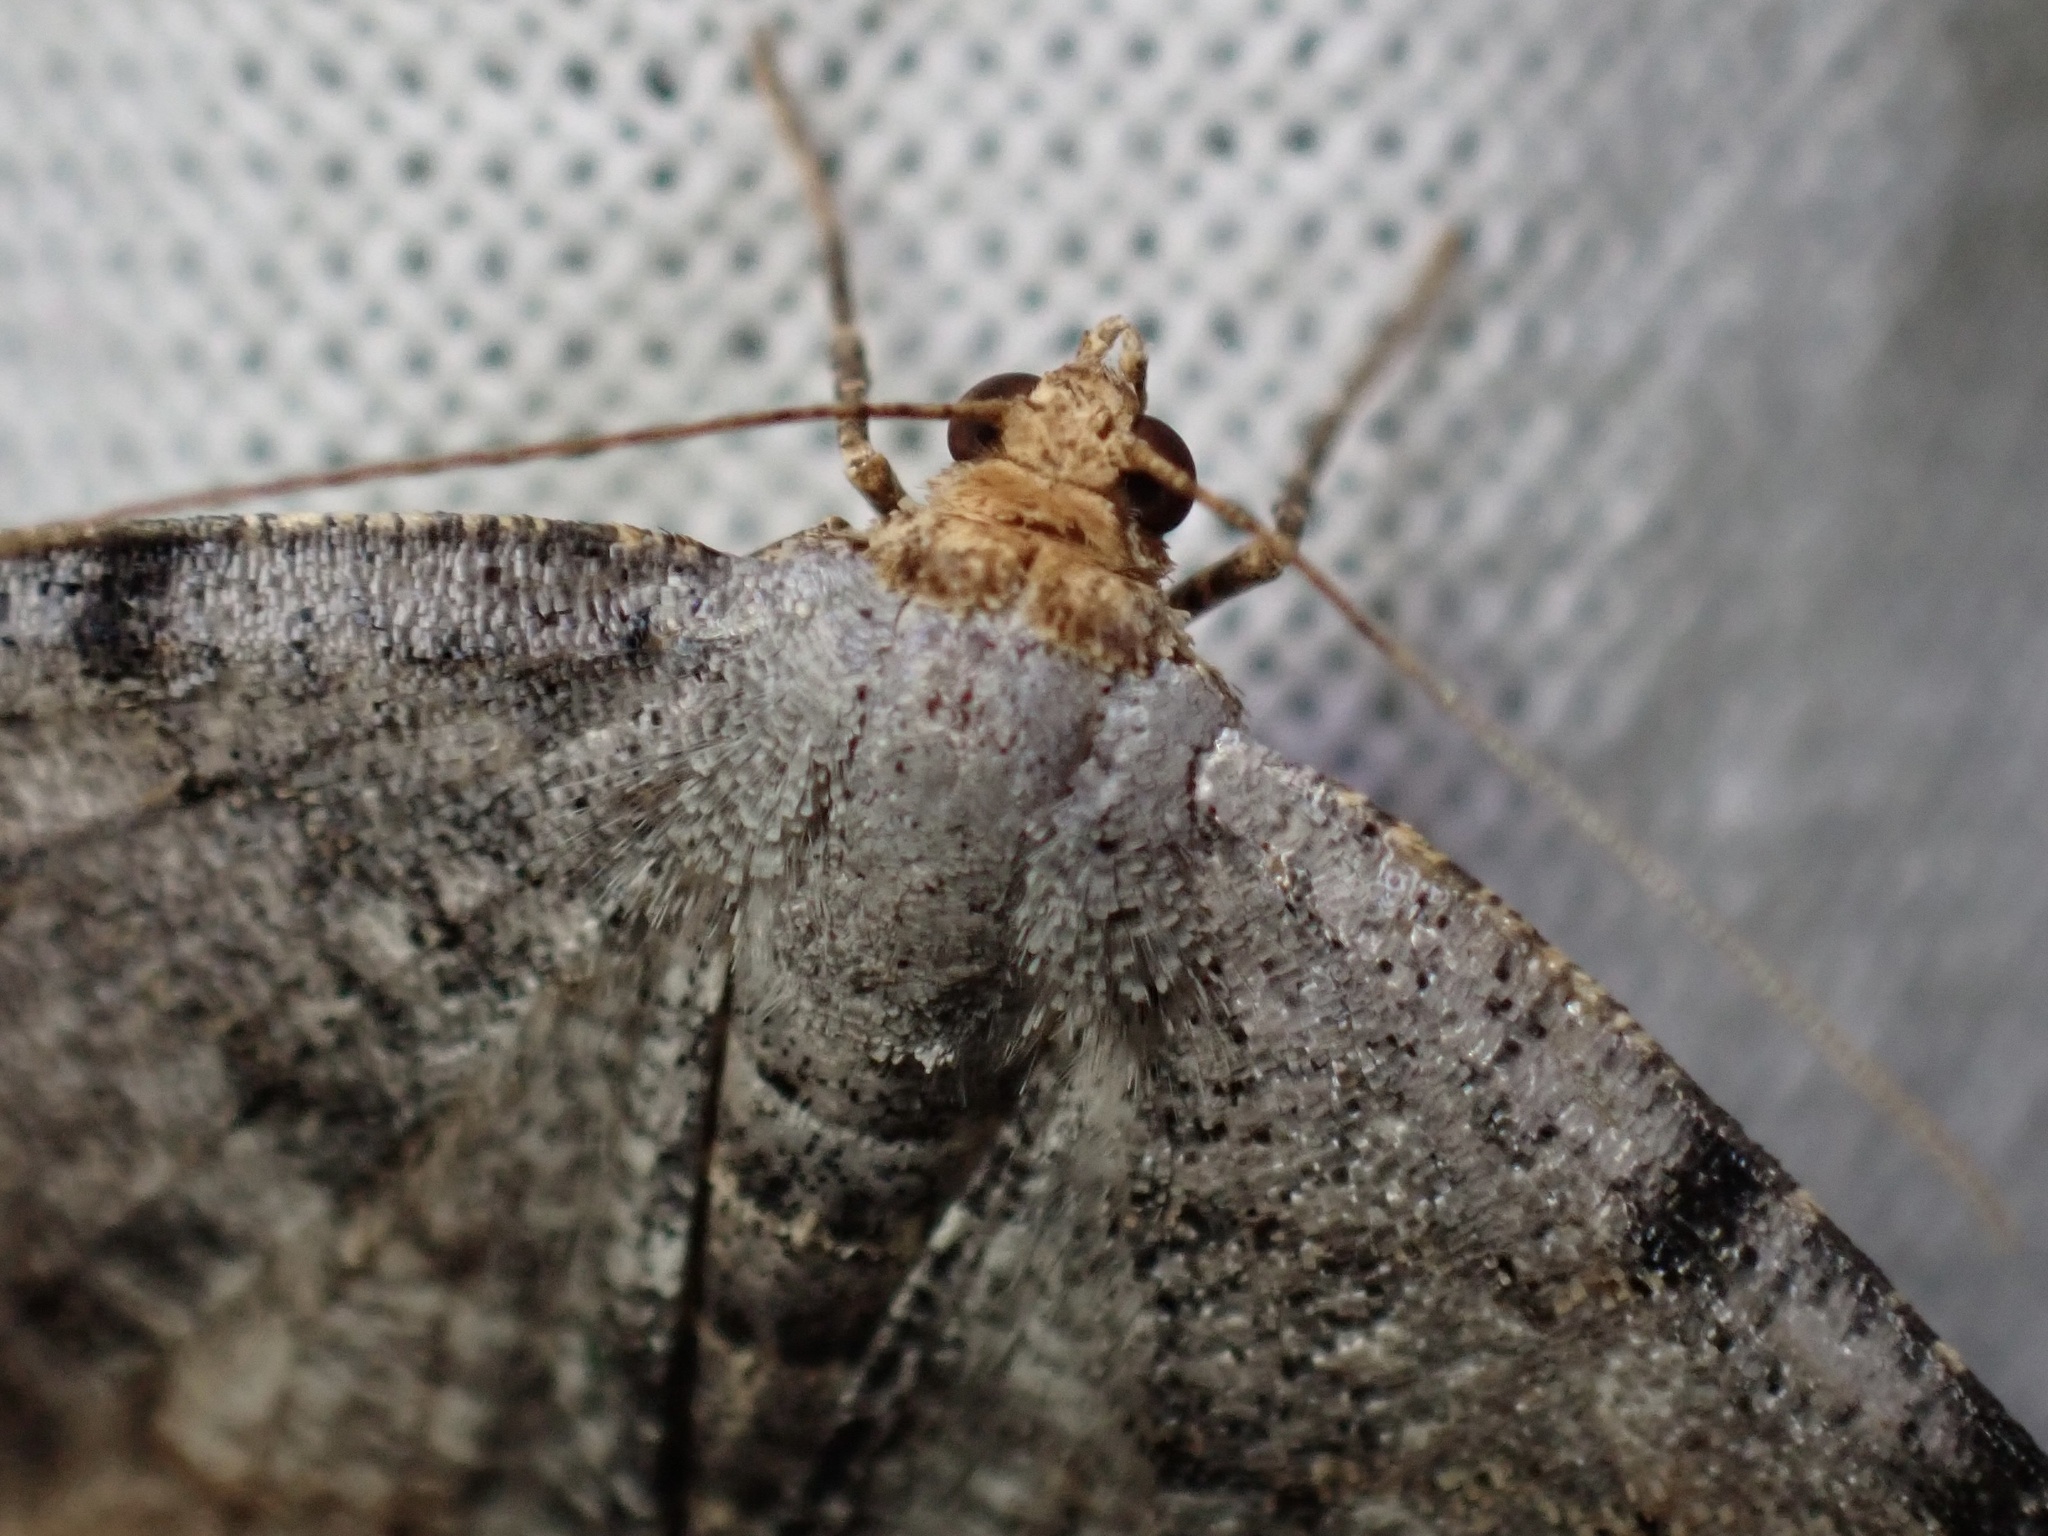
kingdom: Animalia
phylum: Arthropoda
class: Insecta
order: Lepidoptera
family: Geometridae
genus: Macaria
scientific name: Macaria adonis
